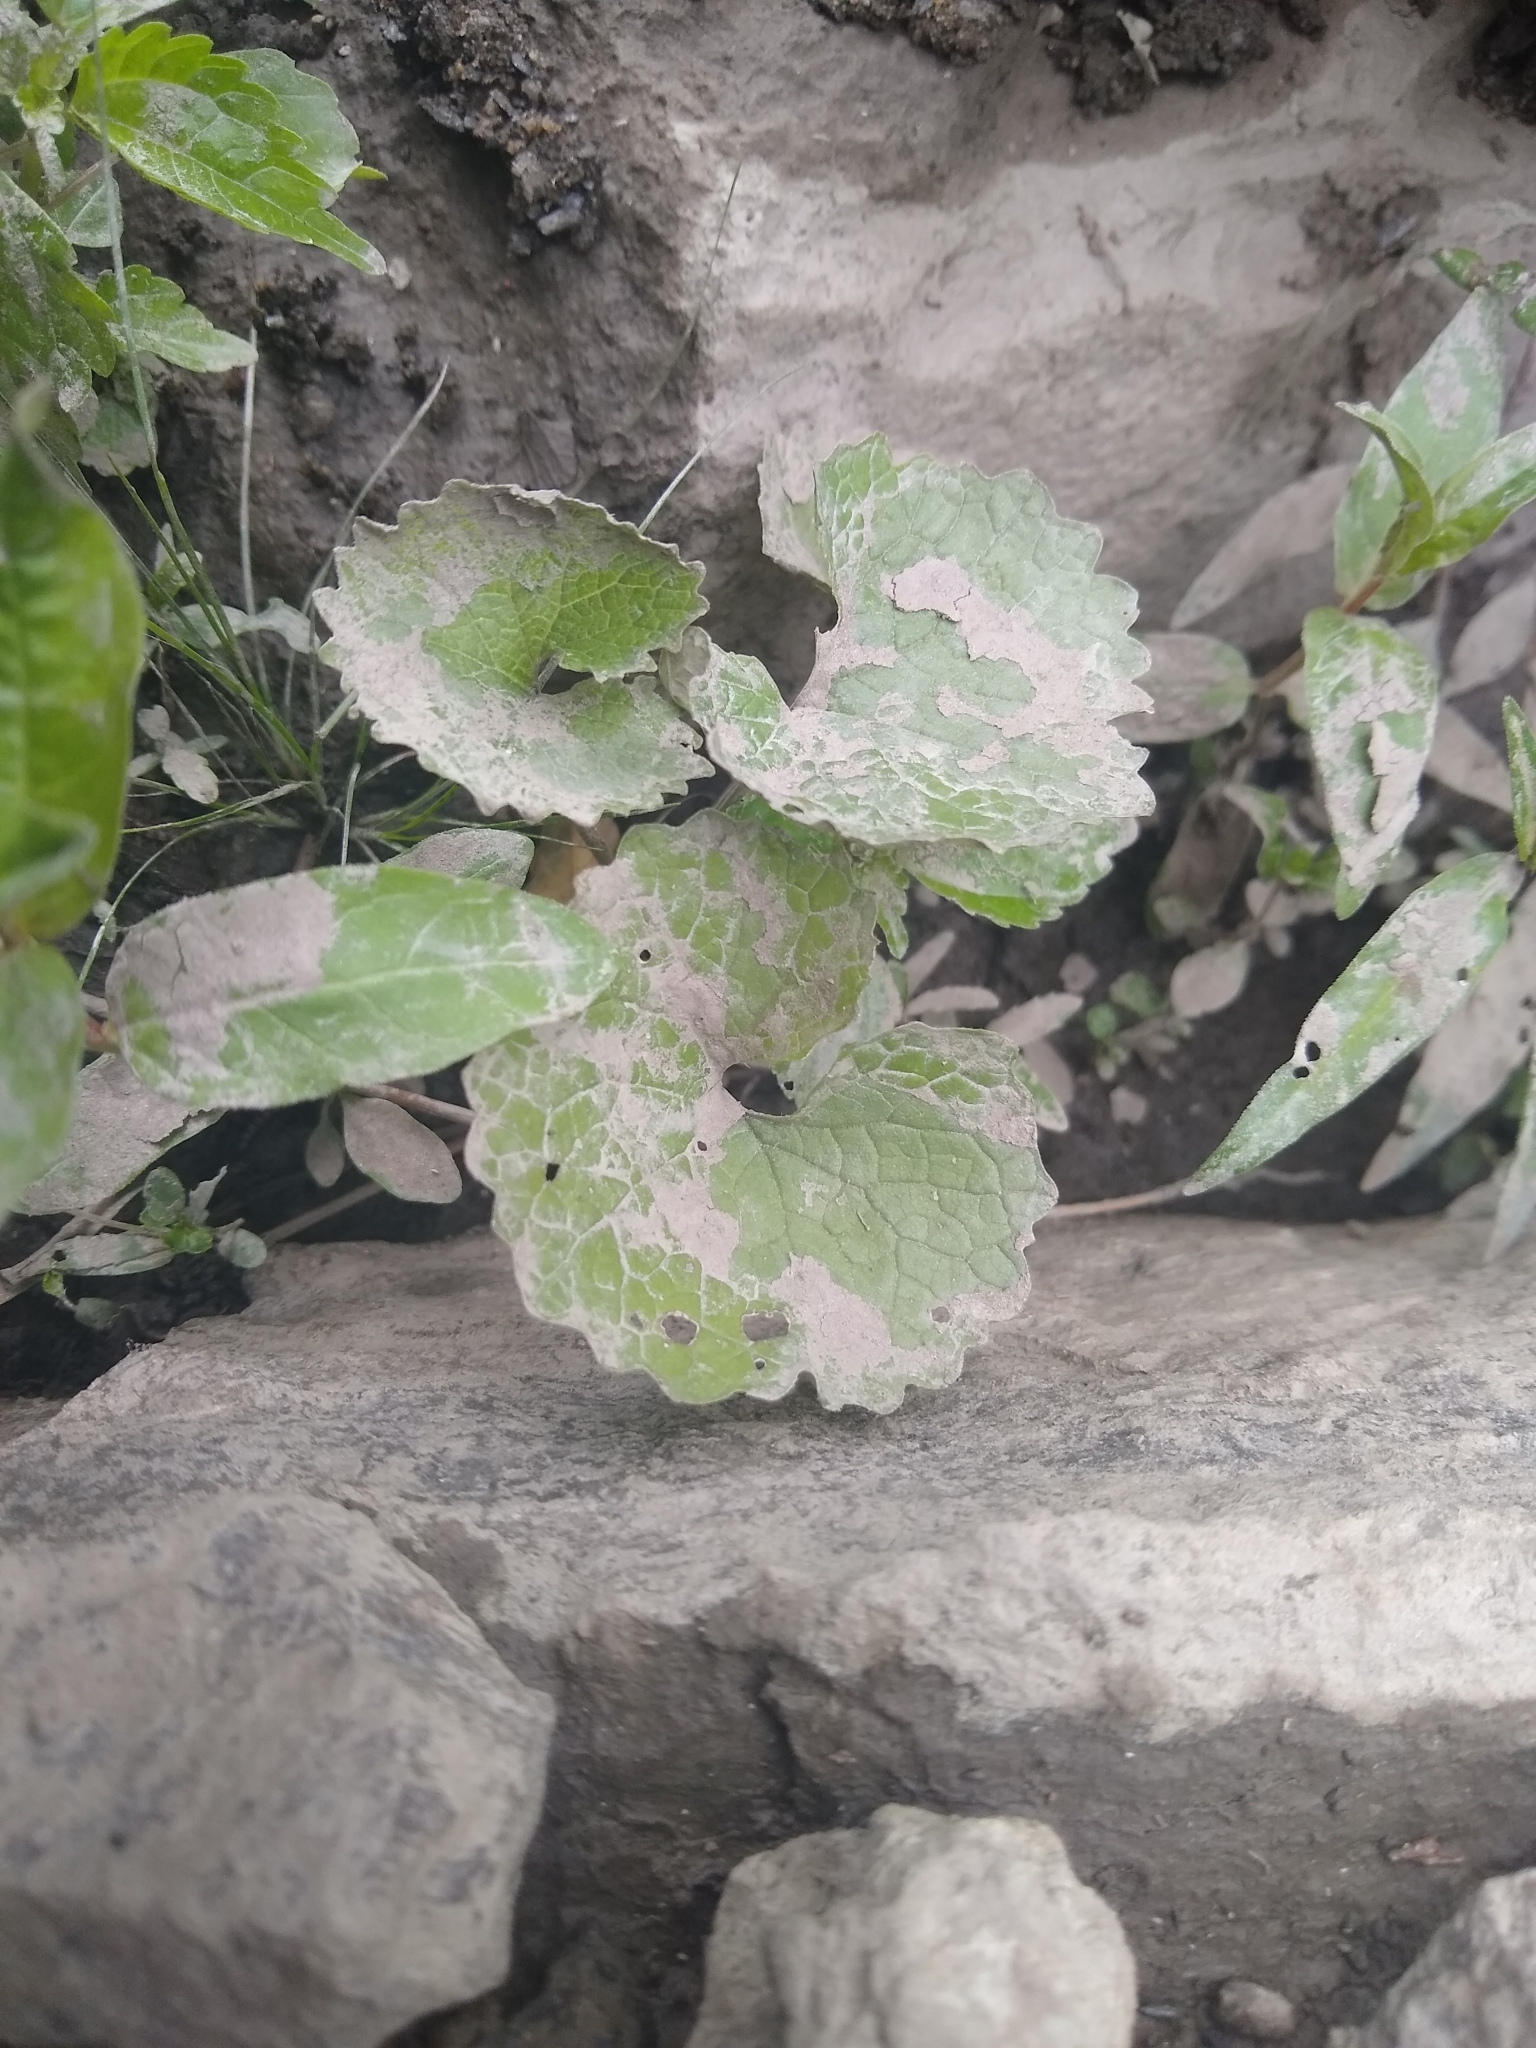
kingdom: Plantae
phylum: Tracheophyta
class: Magnoliopsida
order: Brassicales
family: Brassicaceae
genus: Alliaria
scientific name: Alliaria petiolata
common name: Garlic mustard
